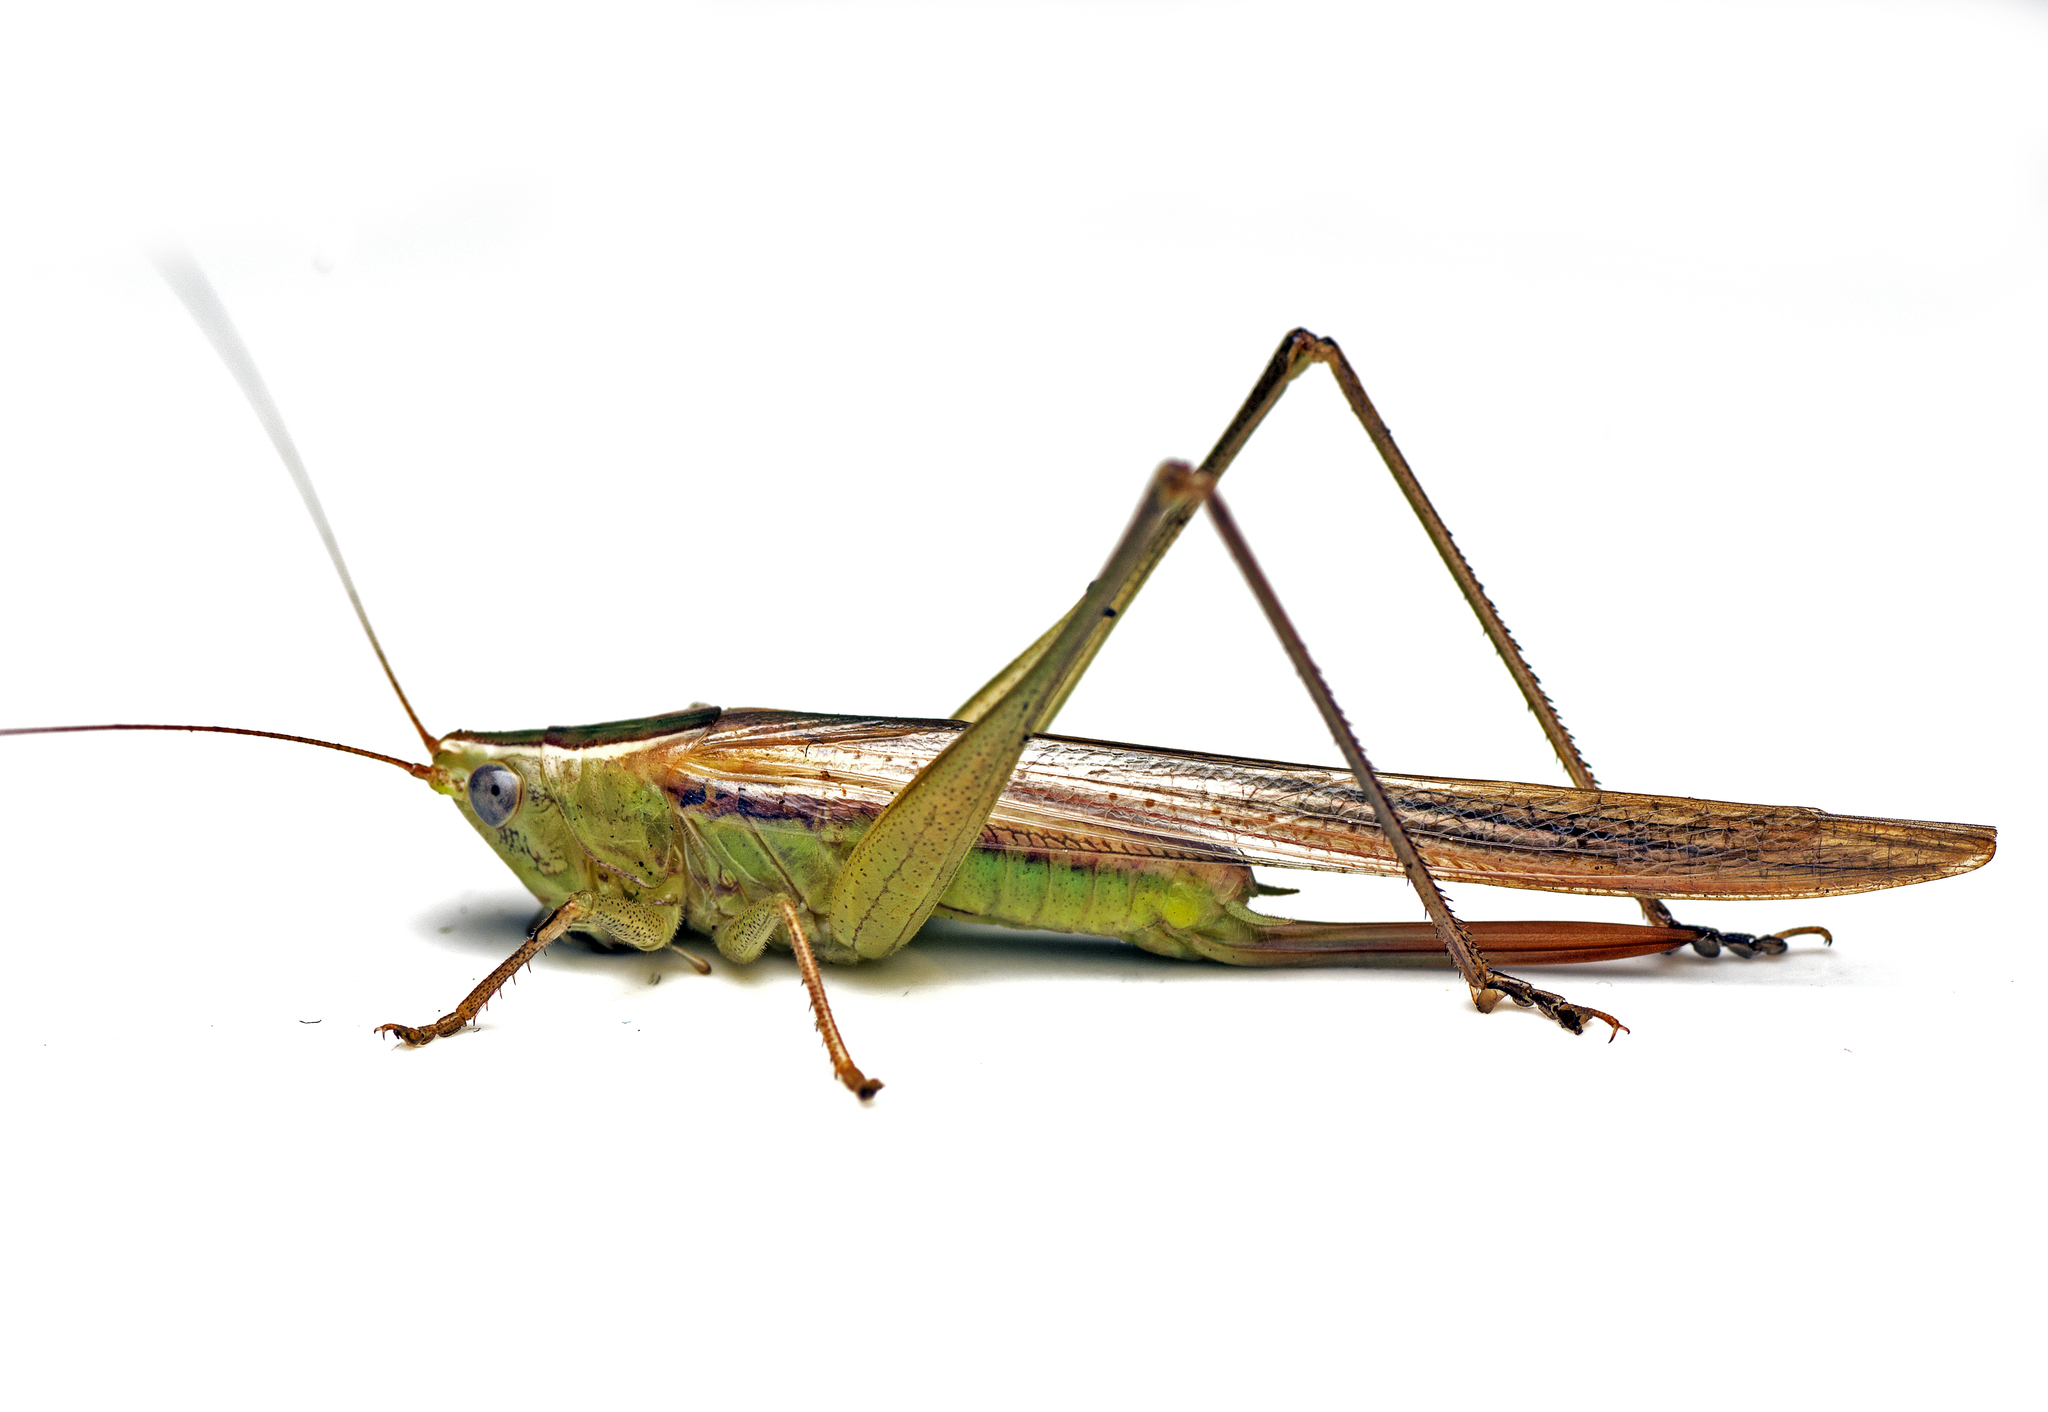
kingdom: Animalia
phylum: Arthropoda
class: Insecta
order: Orthoptera
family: Tettigoniidae
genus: Conocephalus
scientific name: Conocephalus upoluensis
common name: Upolu meadow katydid
